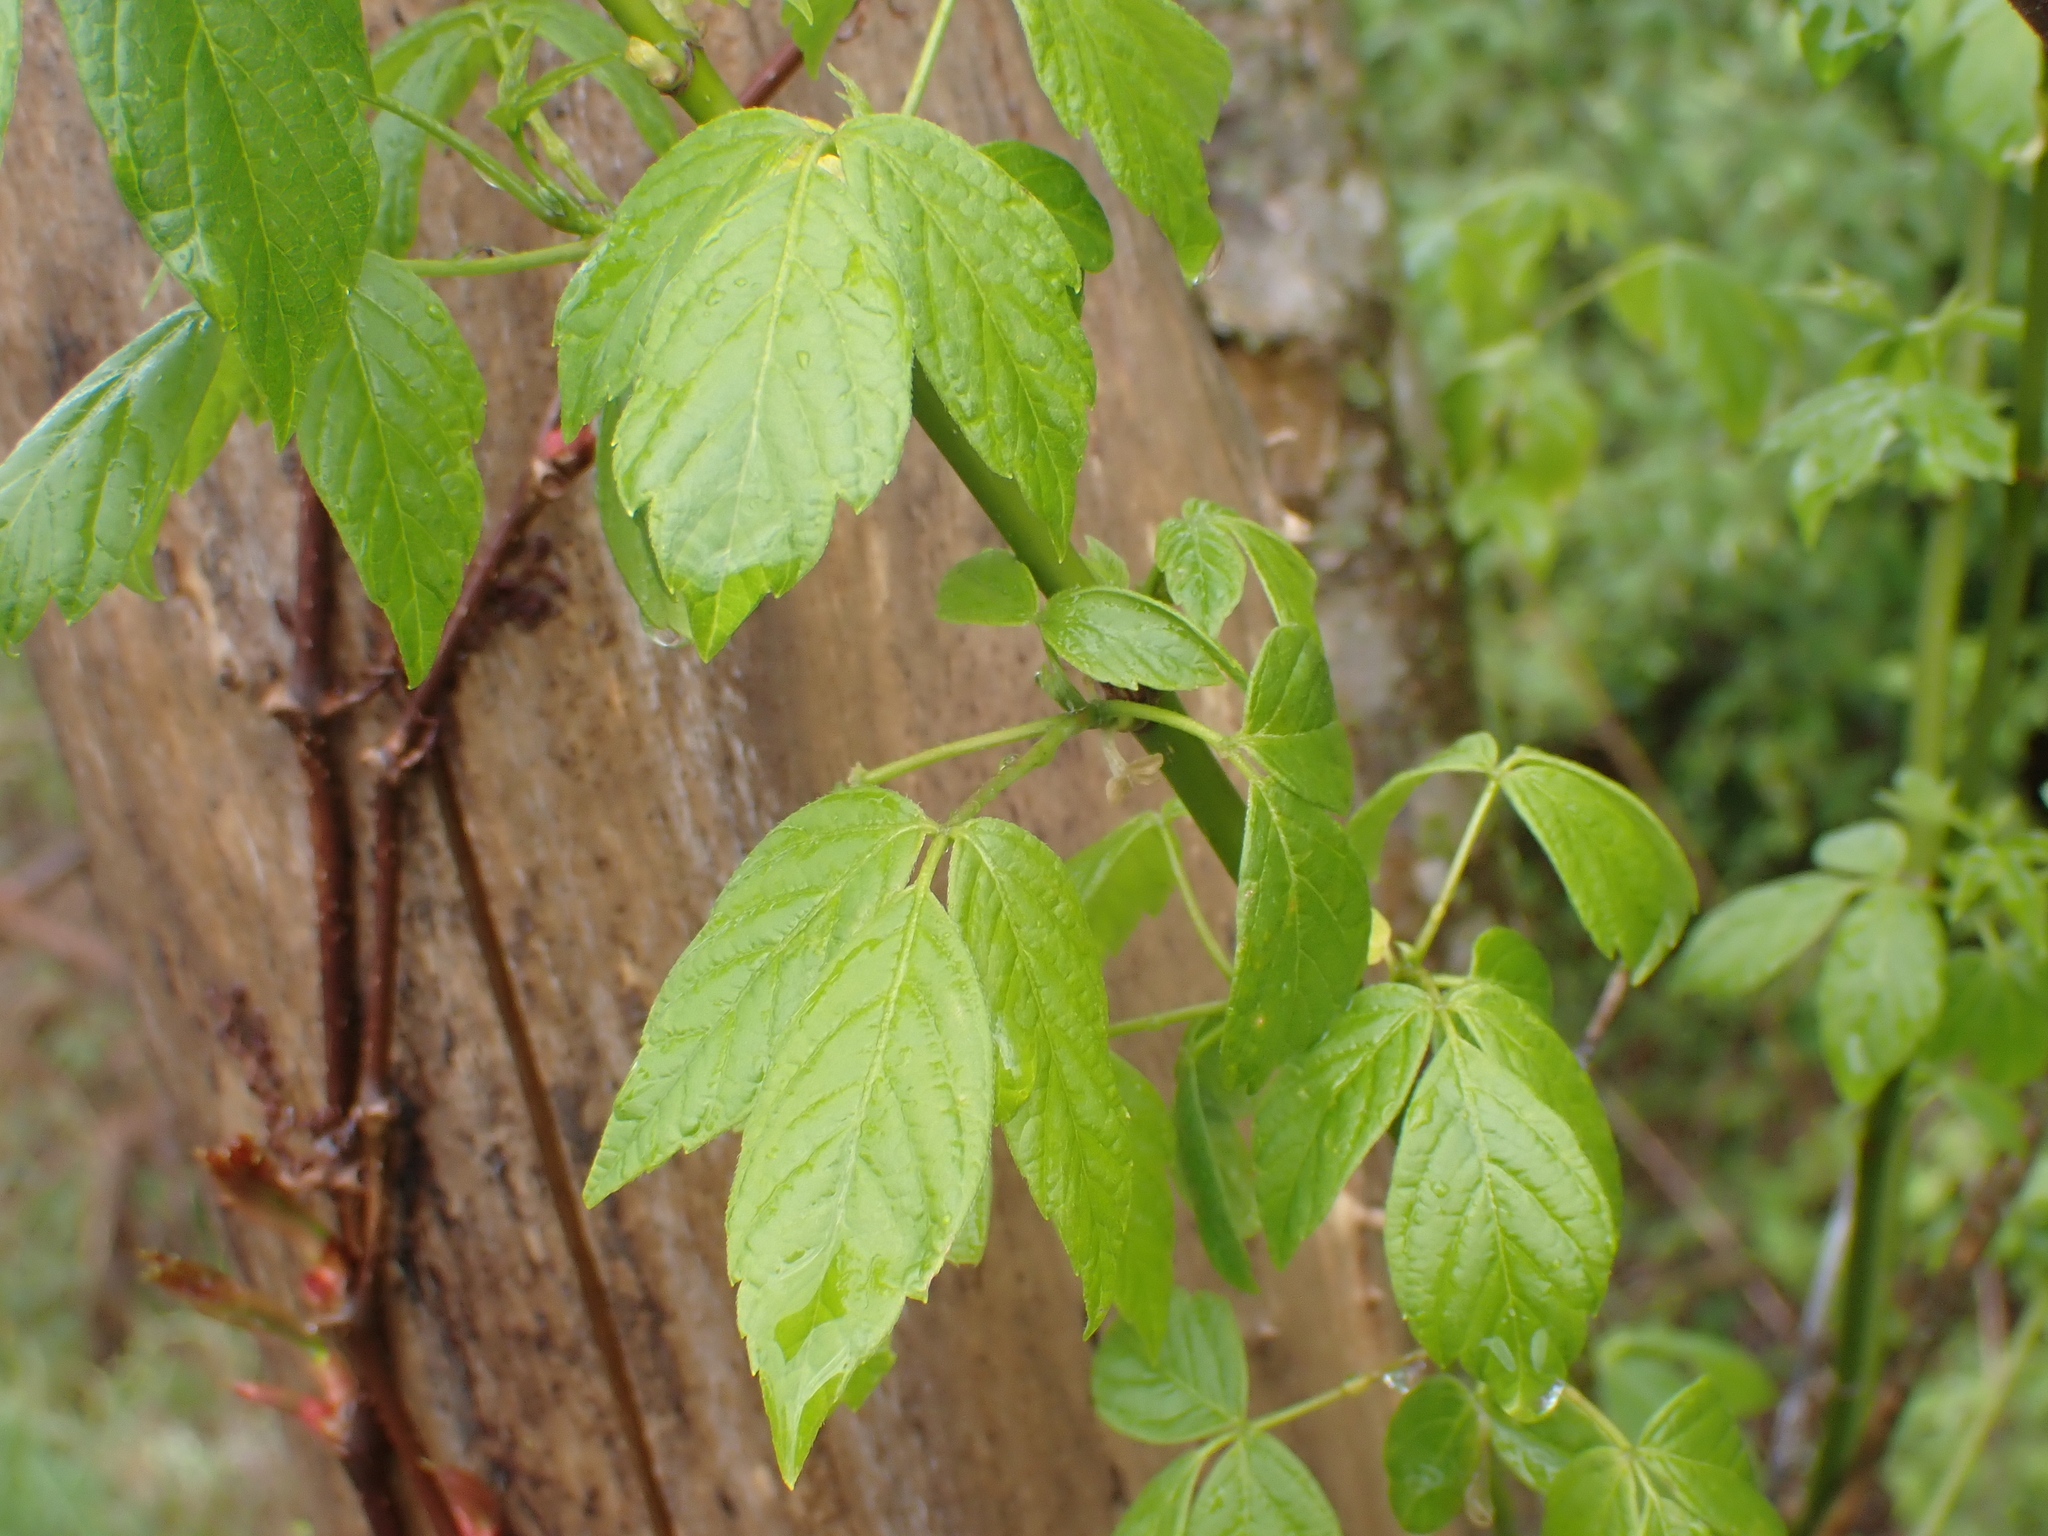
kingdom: Plantae
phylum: Tracheophyta
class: Magnoliopsida
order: Sapindales
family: Sapindaceae
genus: Acer
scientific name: Acer negundo
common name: Ashleaf maple
